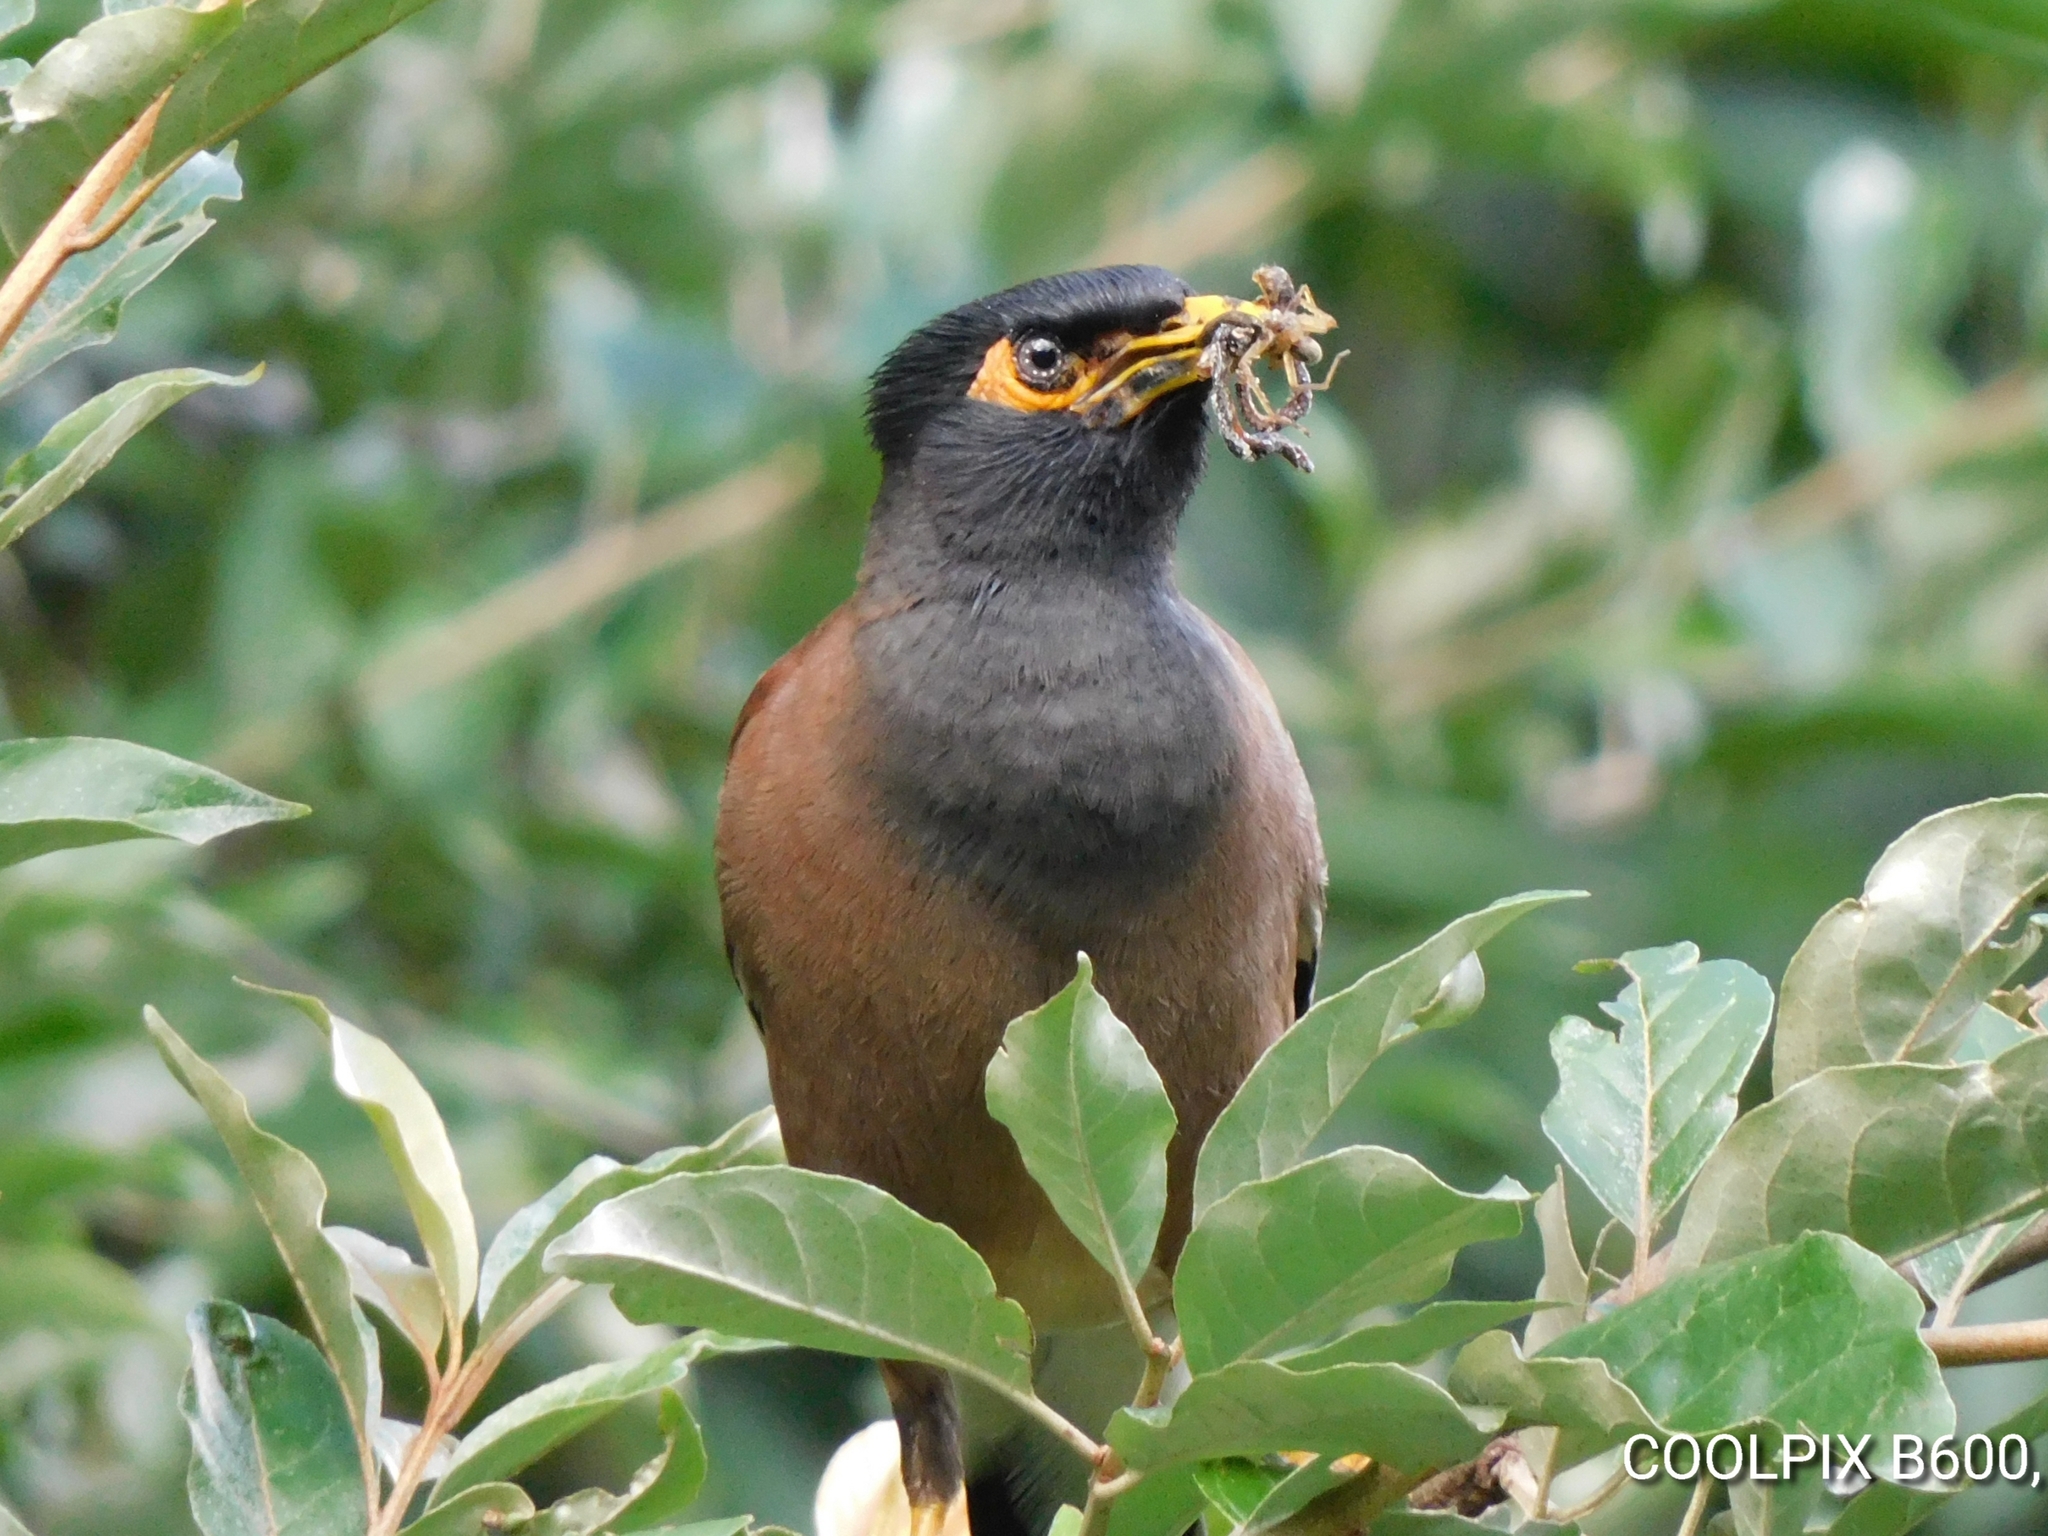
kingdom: Animalia
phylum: Chordata
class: Aves
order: Passeriformes
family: Sturnidae
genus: Acridotheres
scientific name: Acridotheres tristis
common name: Common myna
